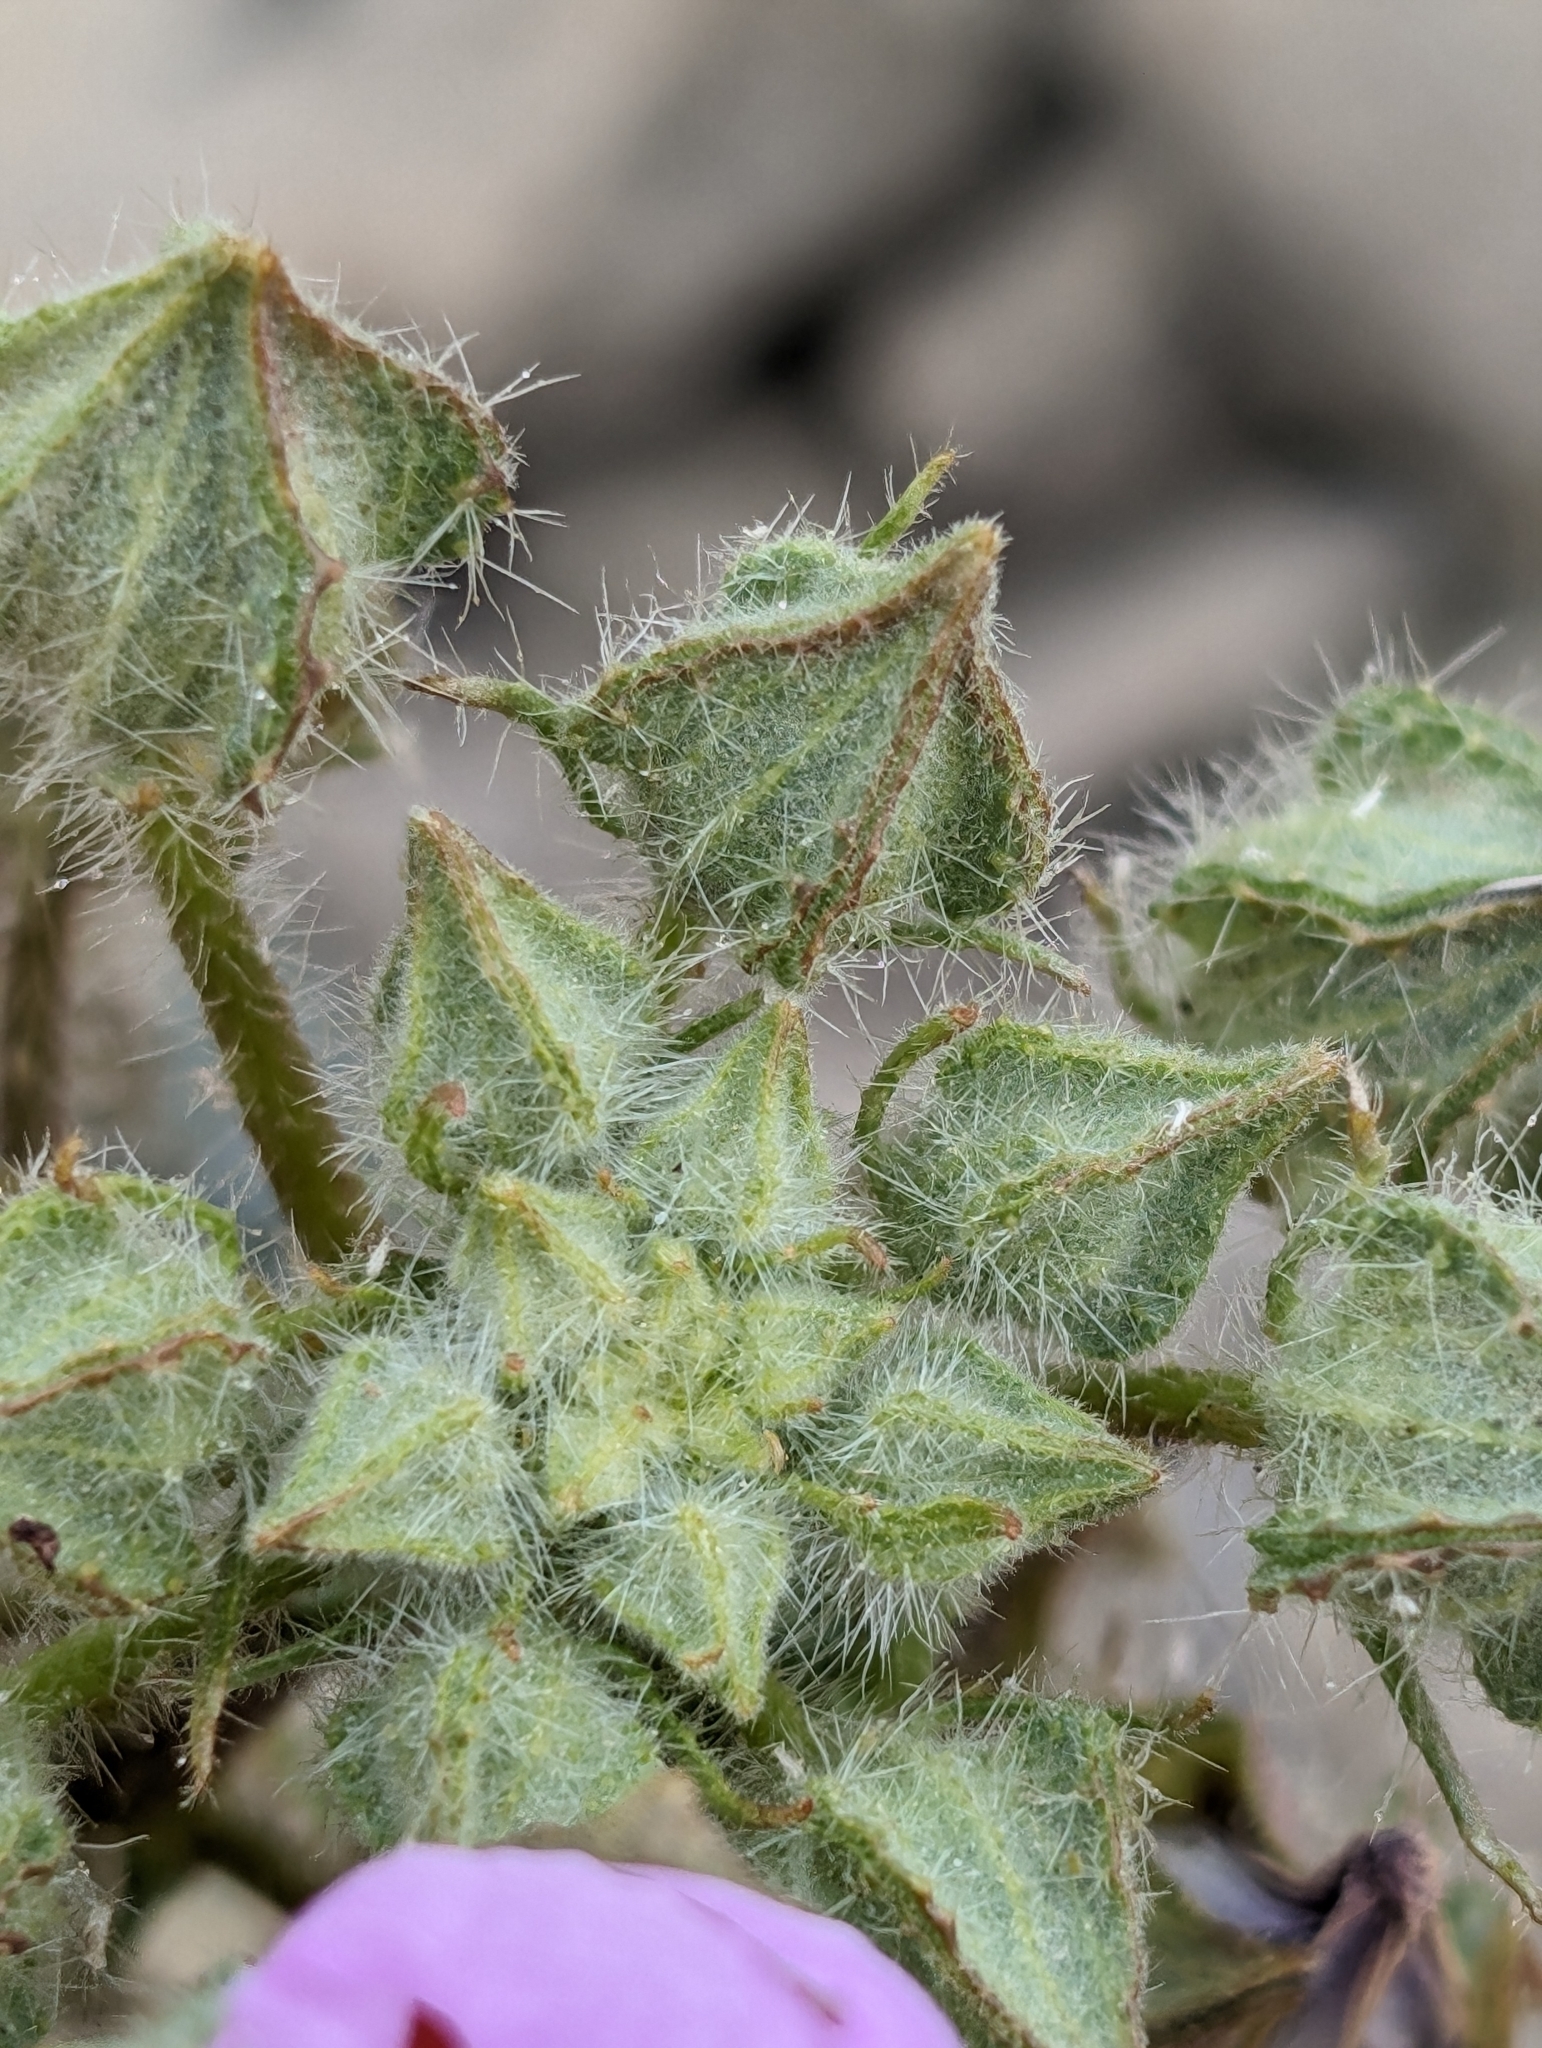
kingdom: Plantae
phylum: Tracheophyta
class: Magnoliopsida
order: Malvales
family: Malvaceae
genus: Eremalche
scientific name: Eremalche rotundifolia
